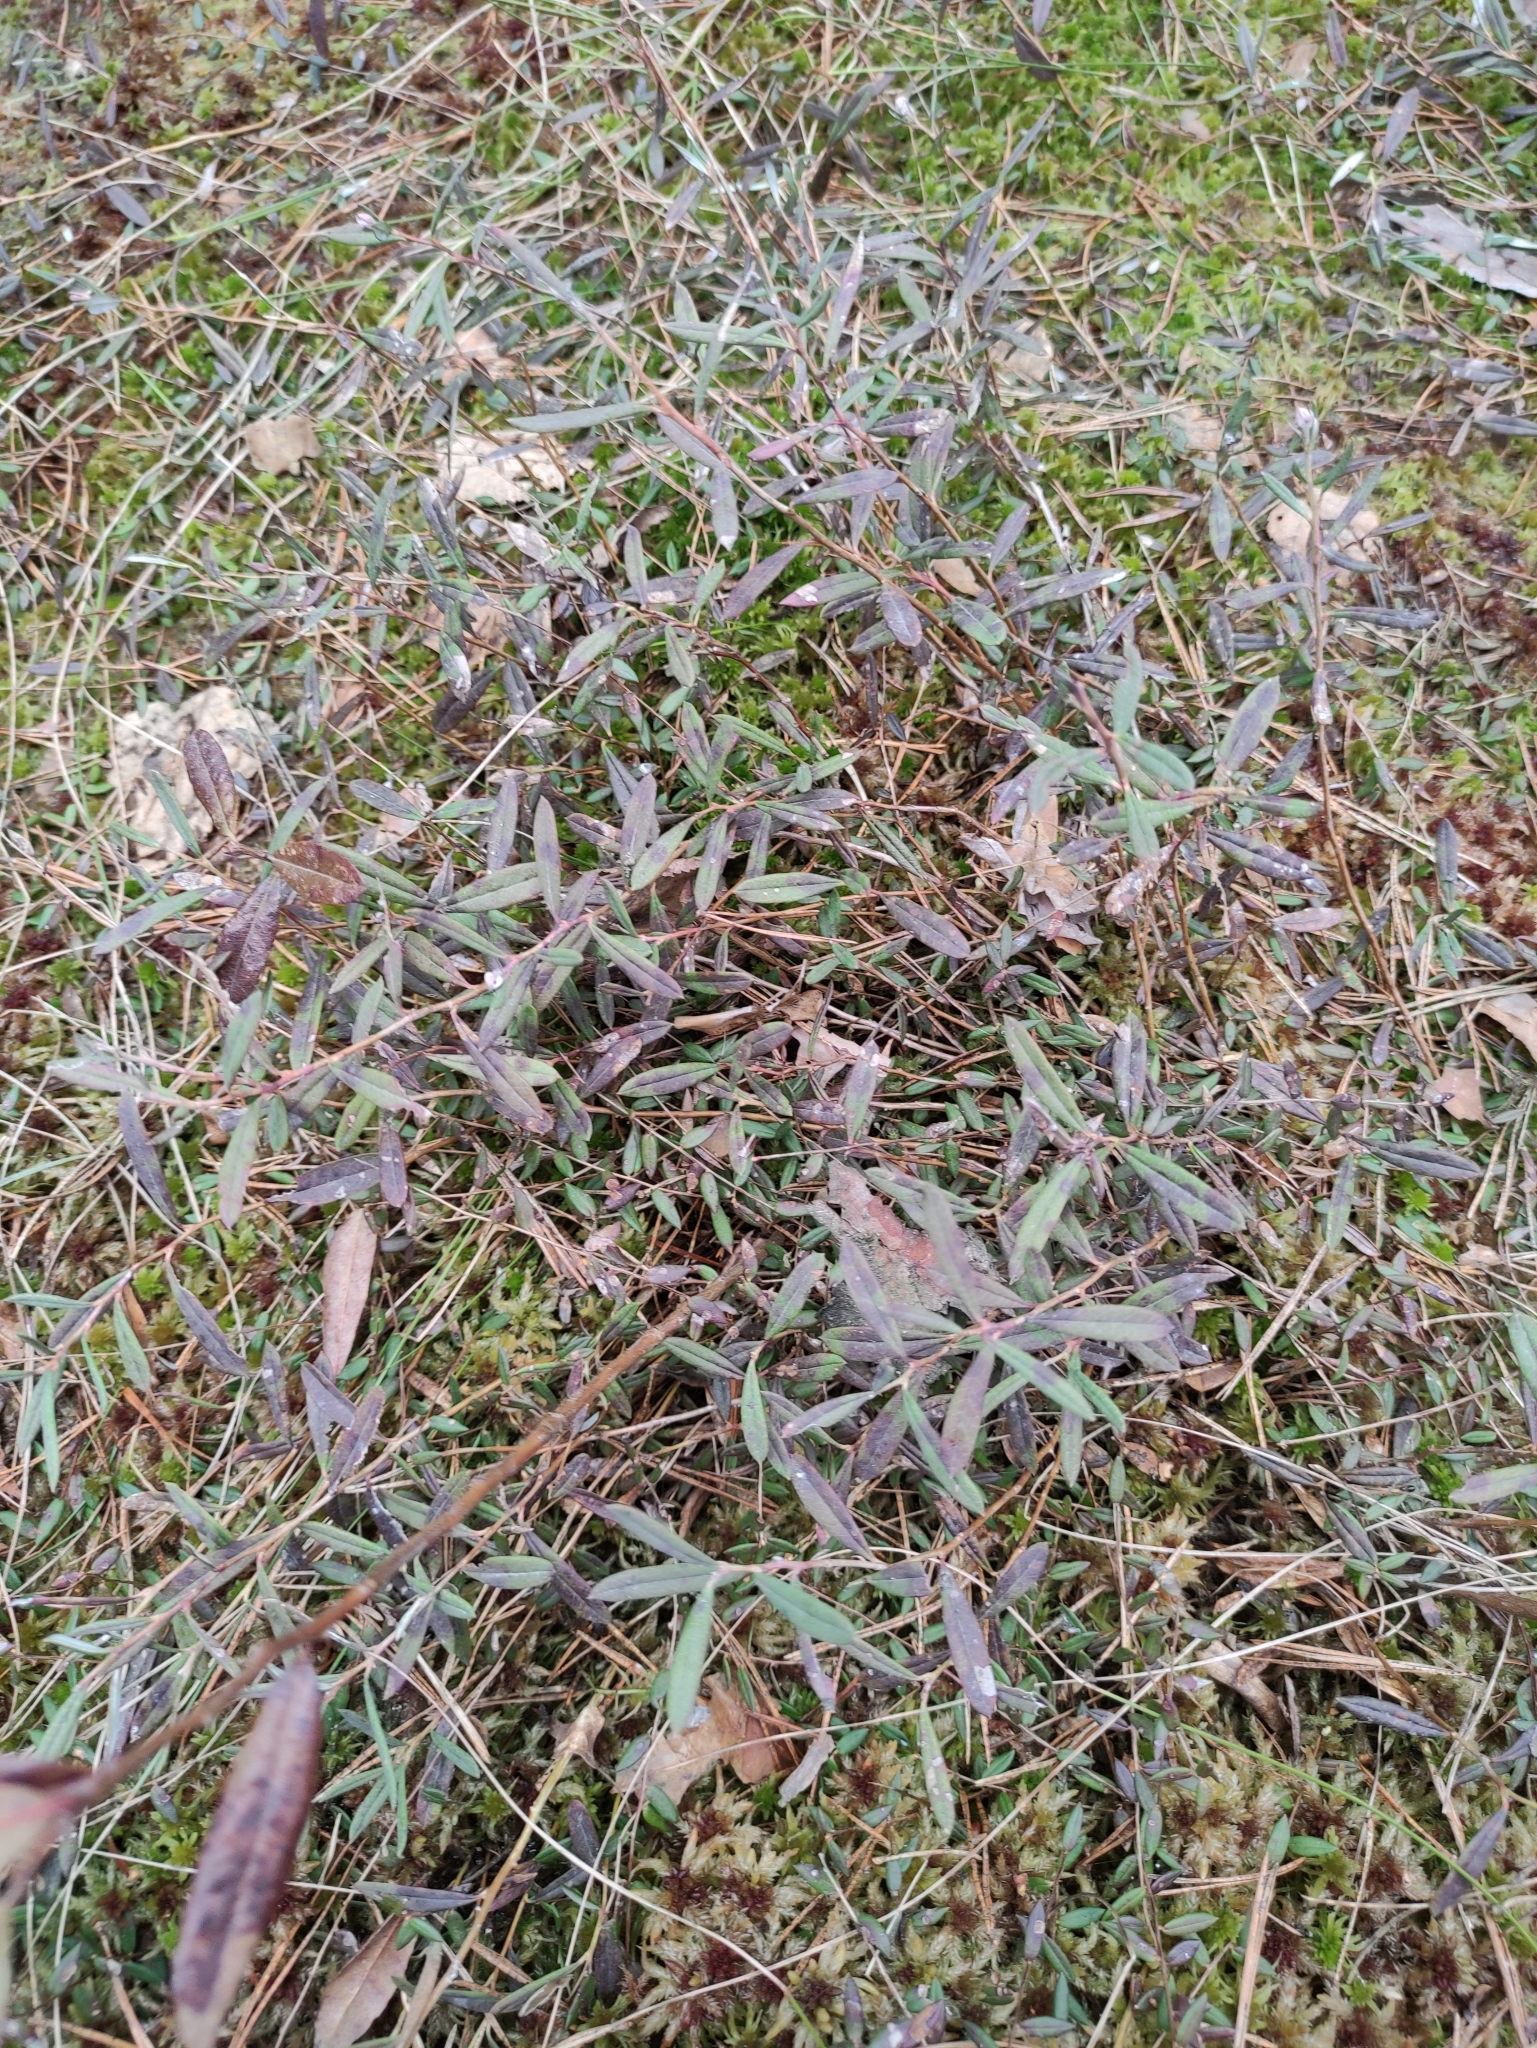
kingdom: Plantae
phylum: Tracheophyta
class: Magnoliopsida
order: Ericales
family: Ericaceae
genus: Andromeda
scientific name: Andromeda polifolia
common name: Bog-rosemary
